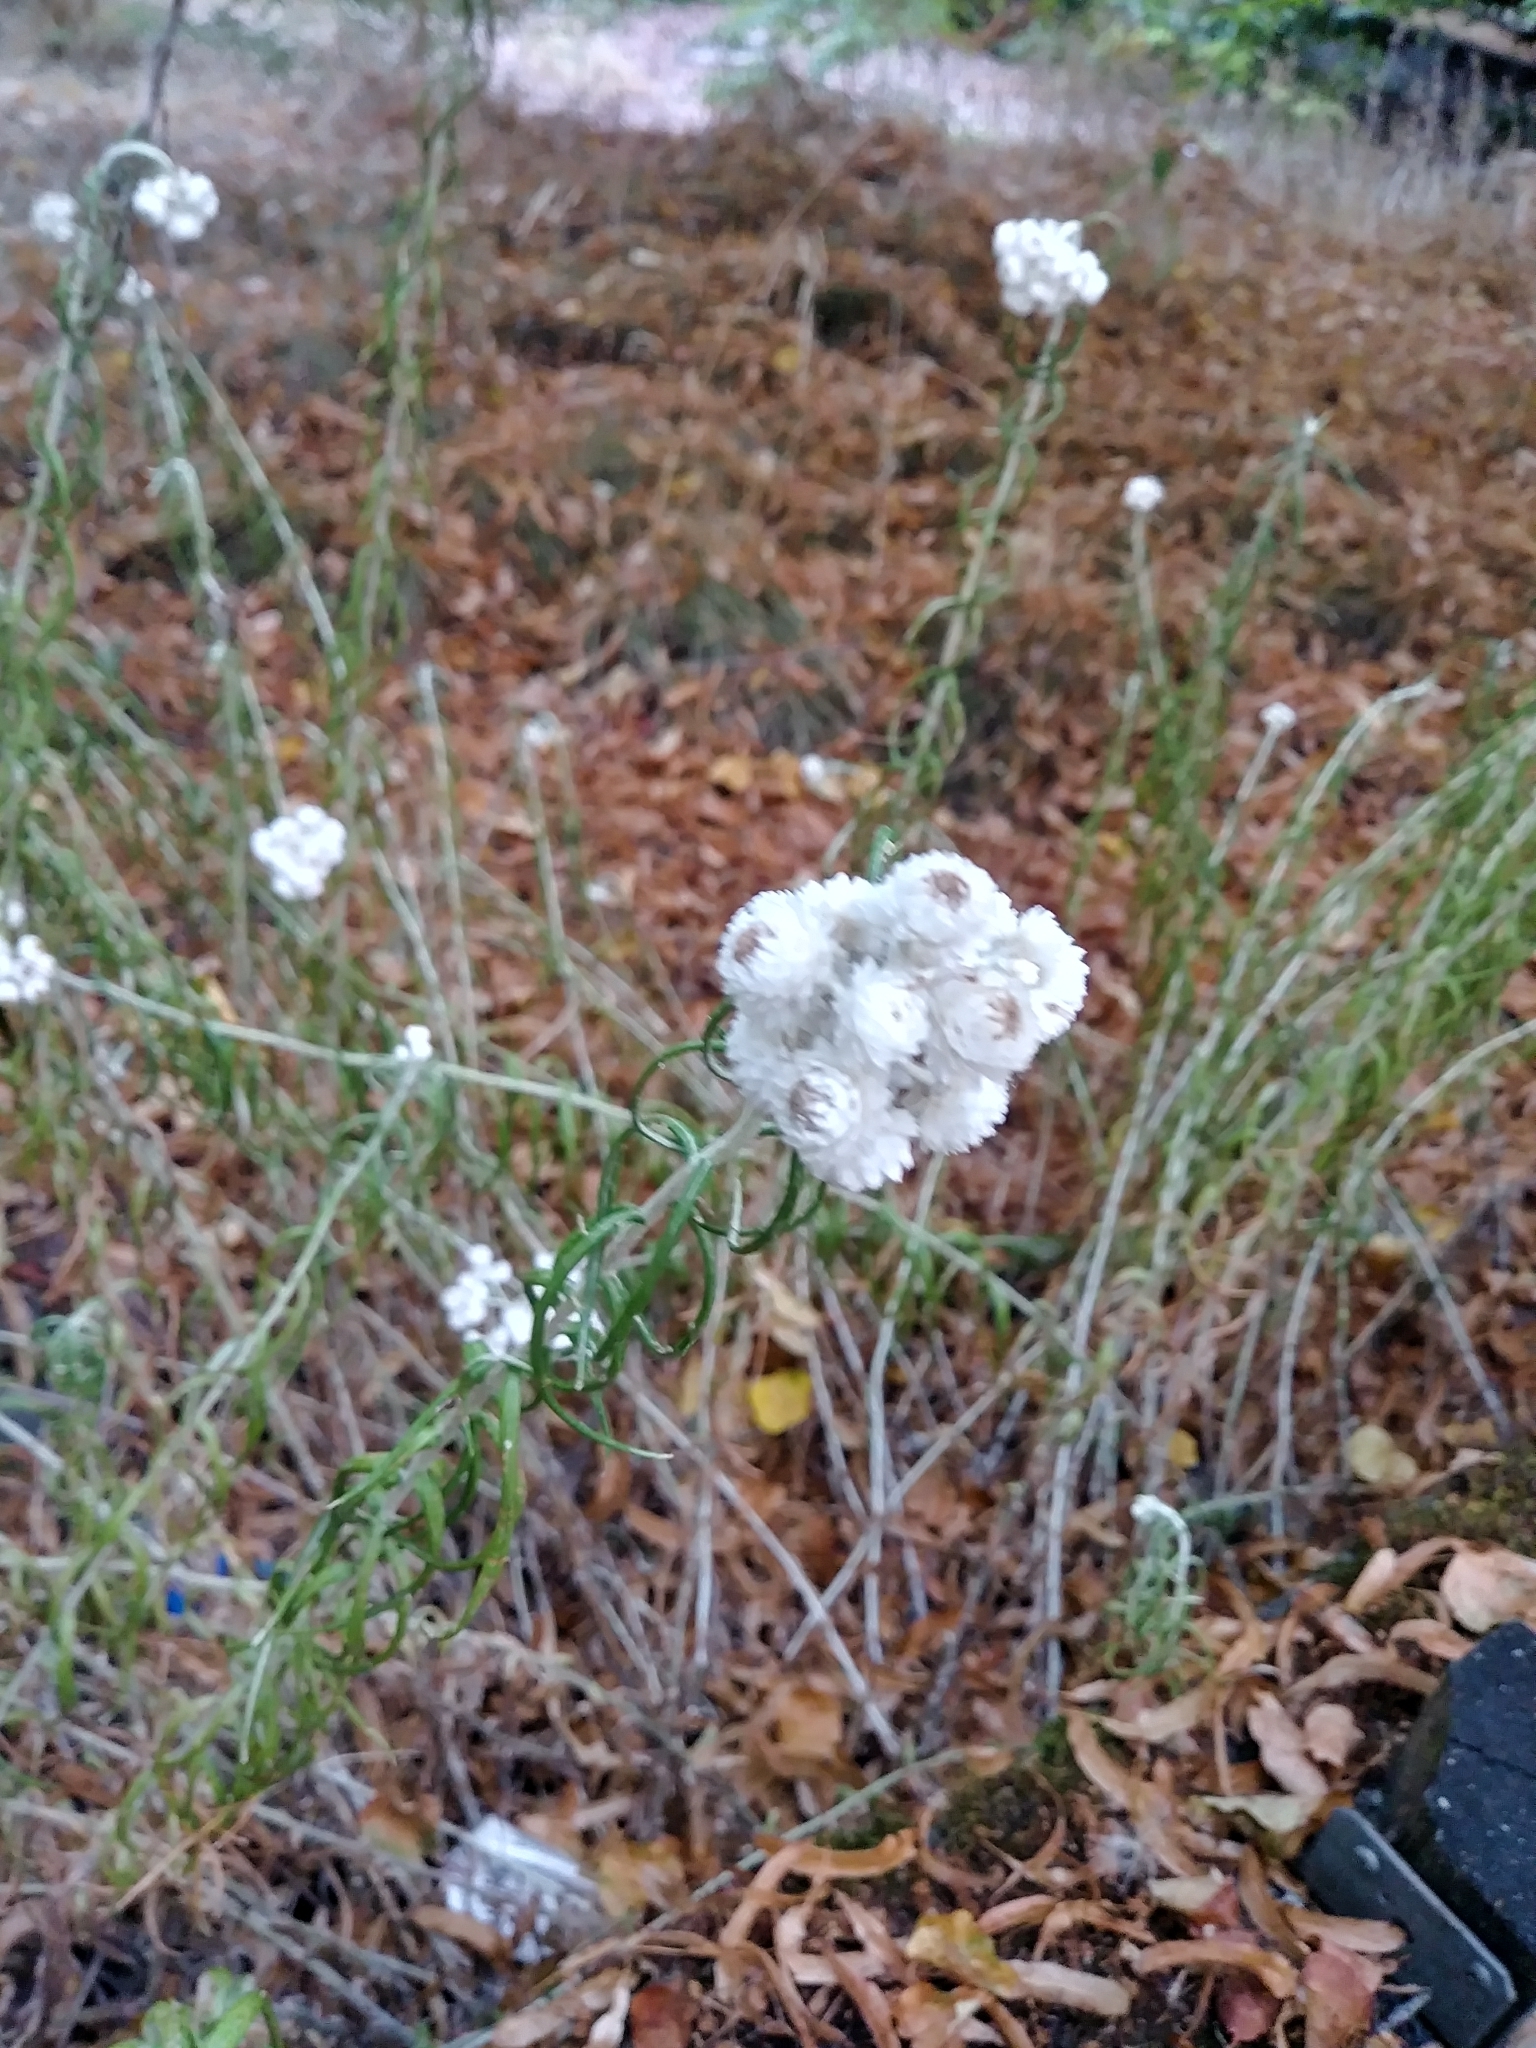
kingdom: Plantae
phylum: Tracheophyta
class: Magnoliopsida
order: Asterales
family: Asteraceae
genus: Anaphalis
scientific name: Anaphalis margaritacea
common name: Pearly everlasting
